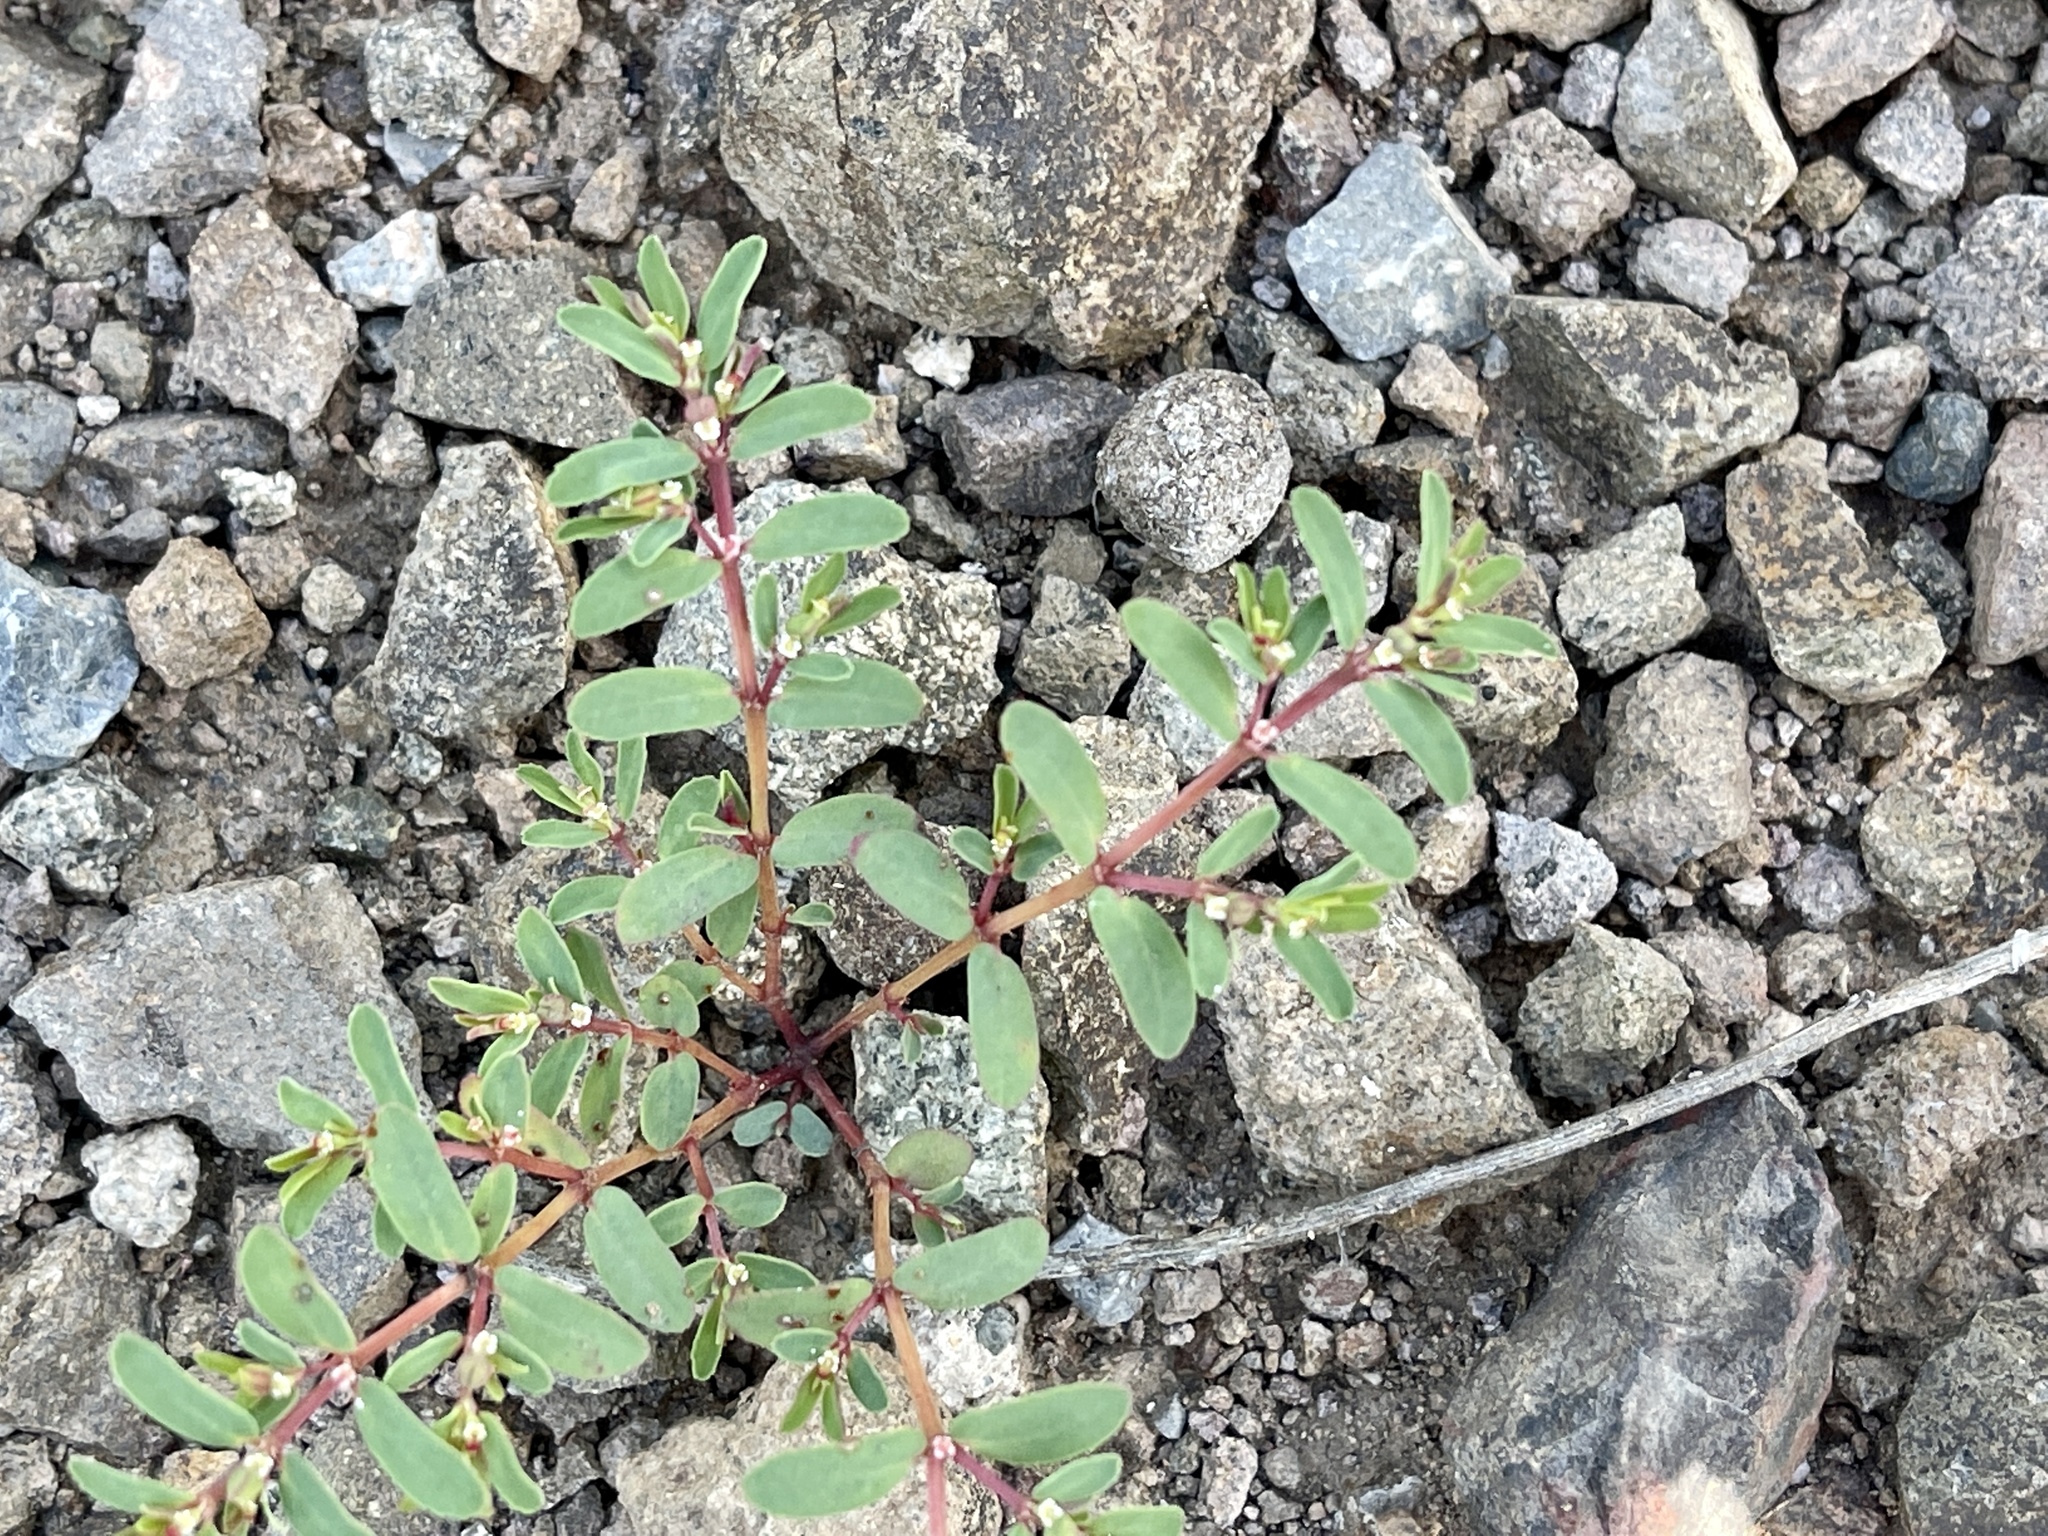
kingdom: Plantae
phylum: Tracheophyta
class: Magnoliopsida
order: Malpighiales
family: Euphorbiaceae
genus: Euphorbia
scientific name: Euphorbia serpillifolia
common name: Thyme-leaf spurge
